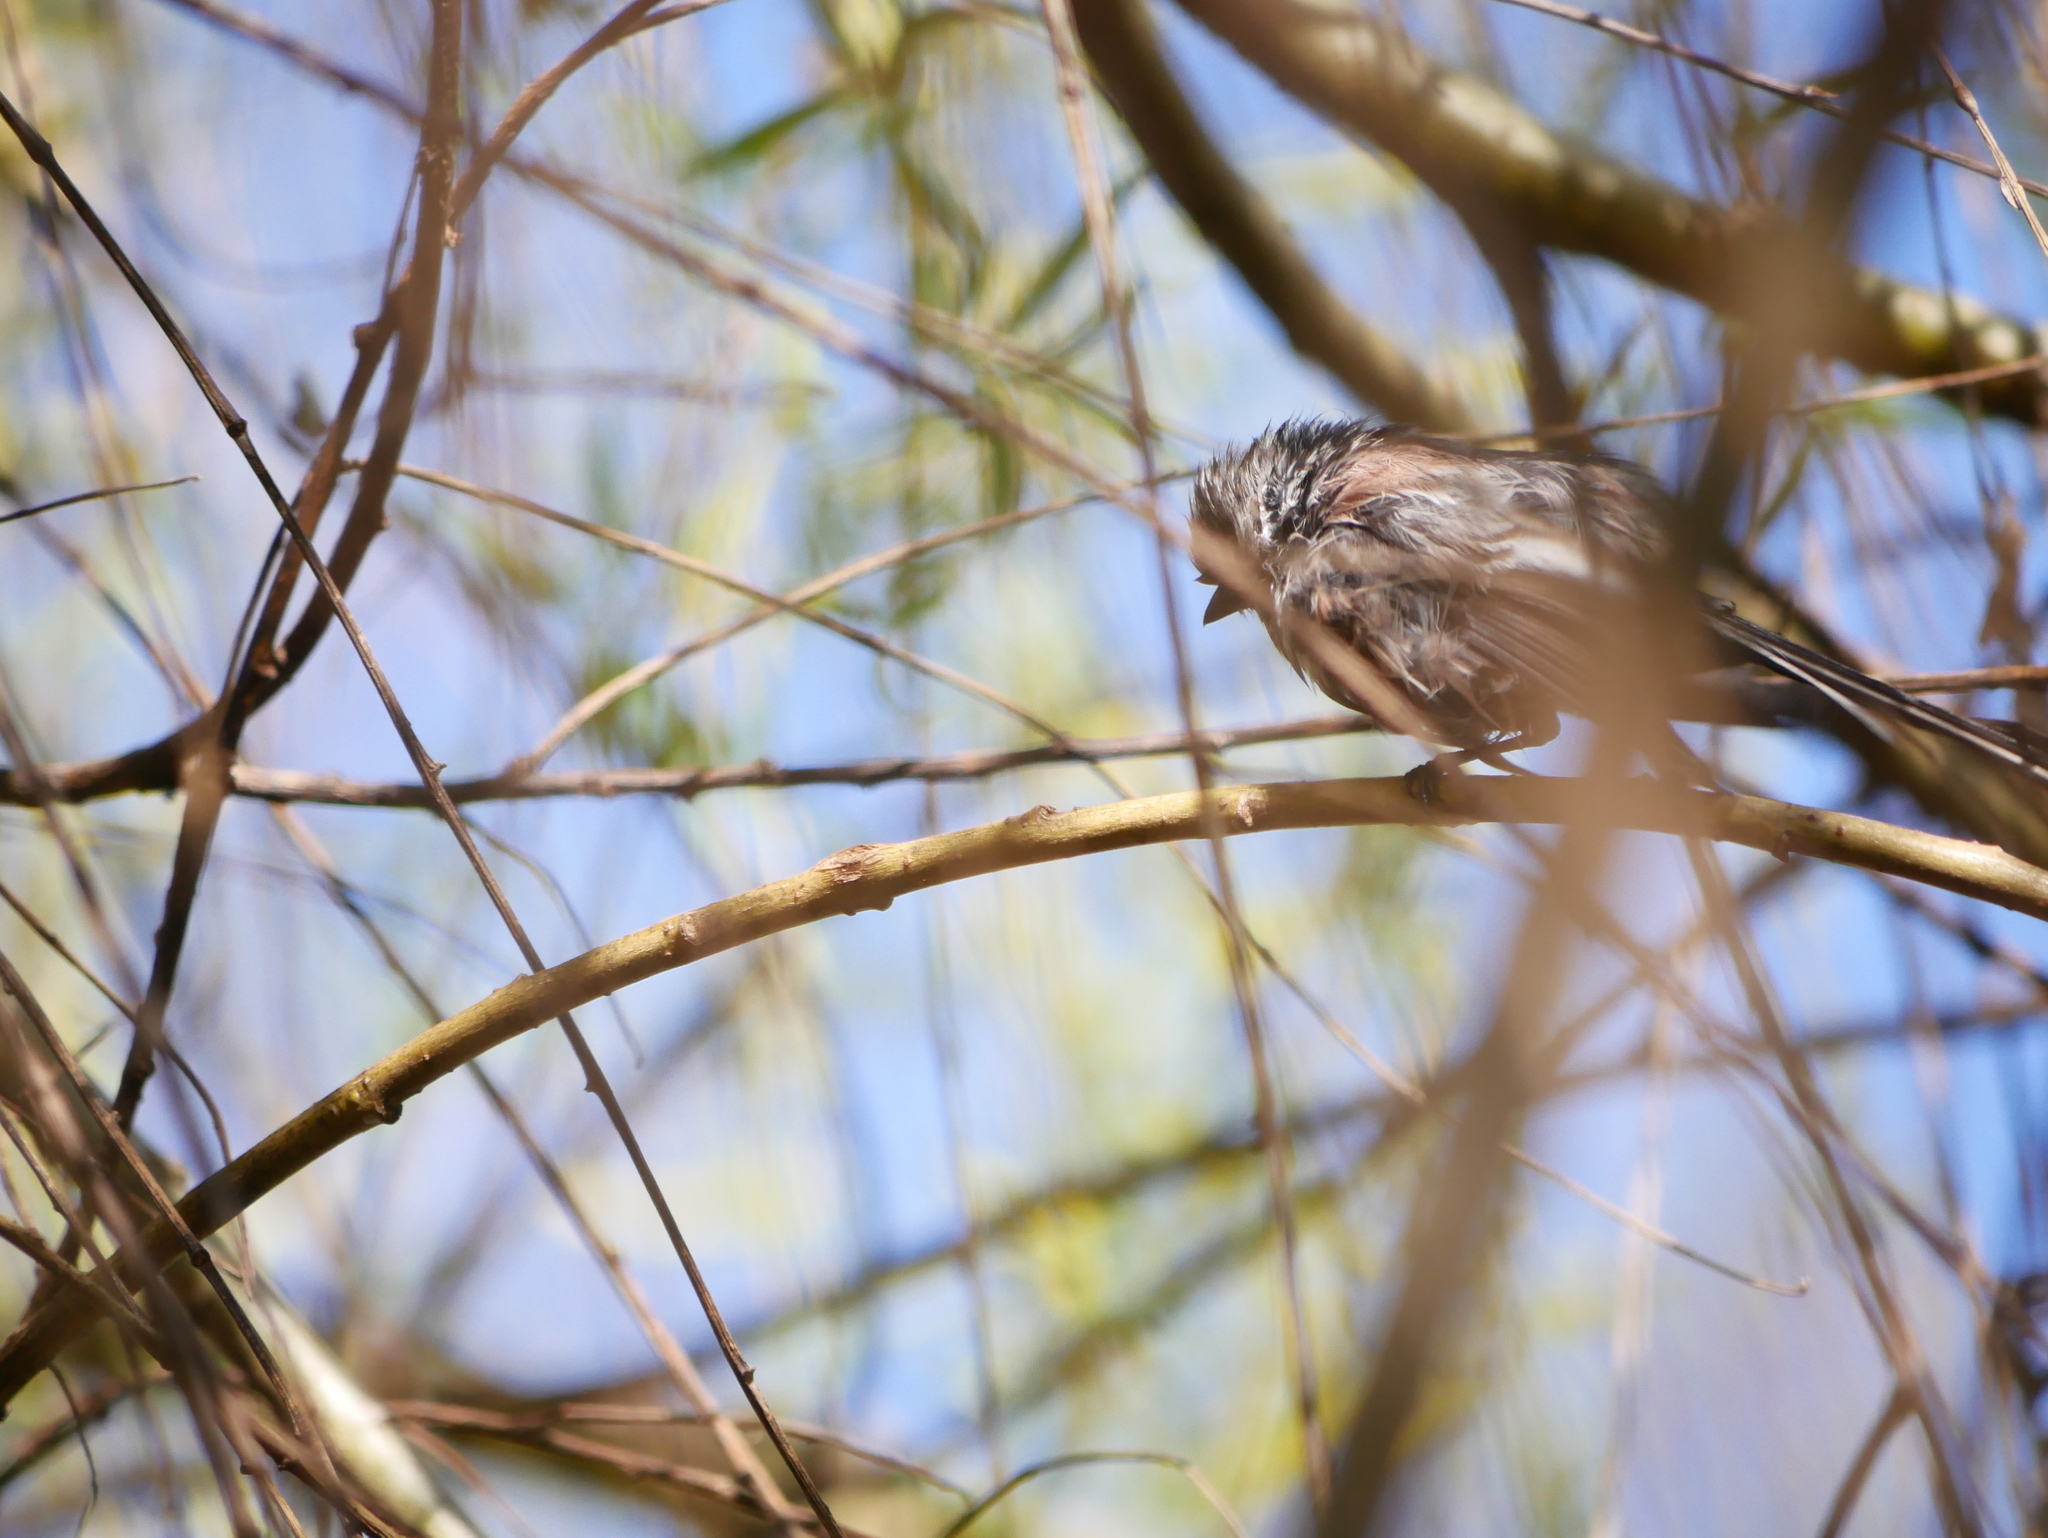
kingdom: Animalia
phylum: Chordata
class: Aves
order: Passeriformes
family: Aegithalidae
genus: Aegithalos
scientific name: Aegithalos caudatus
